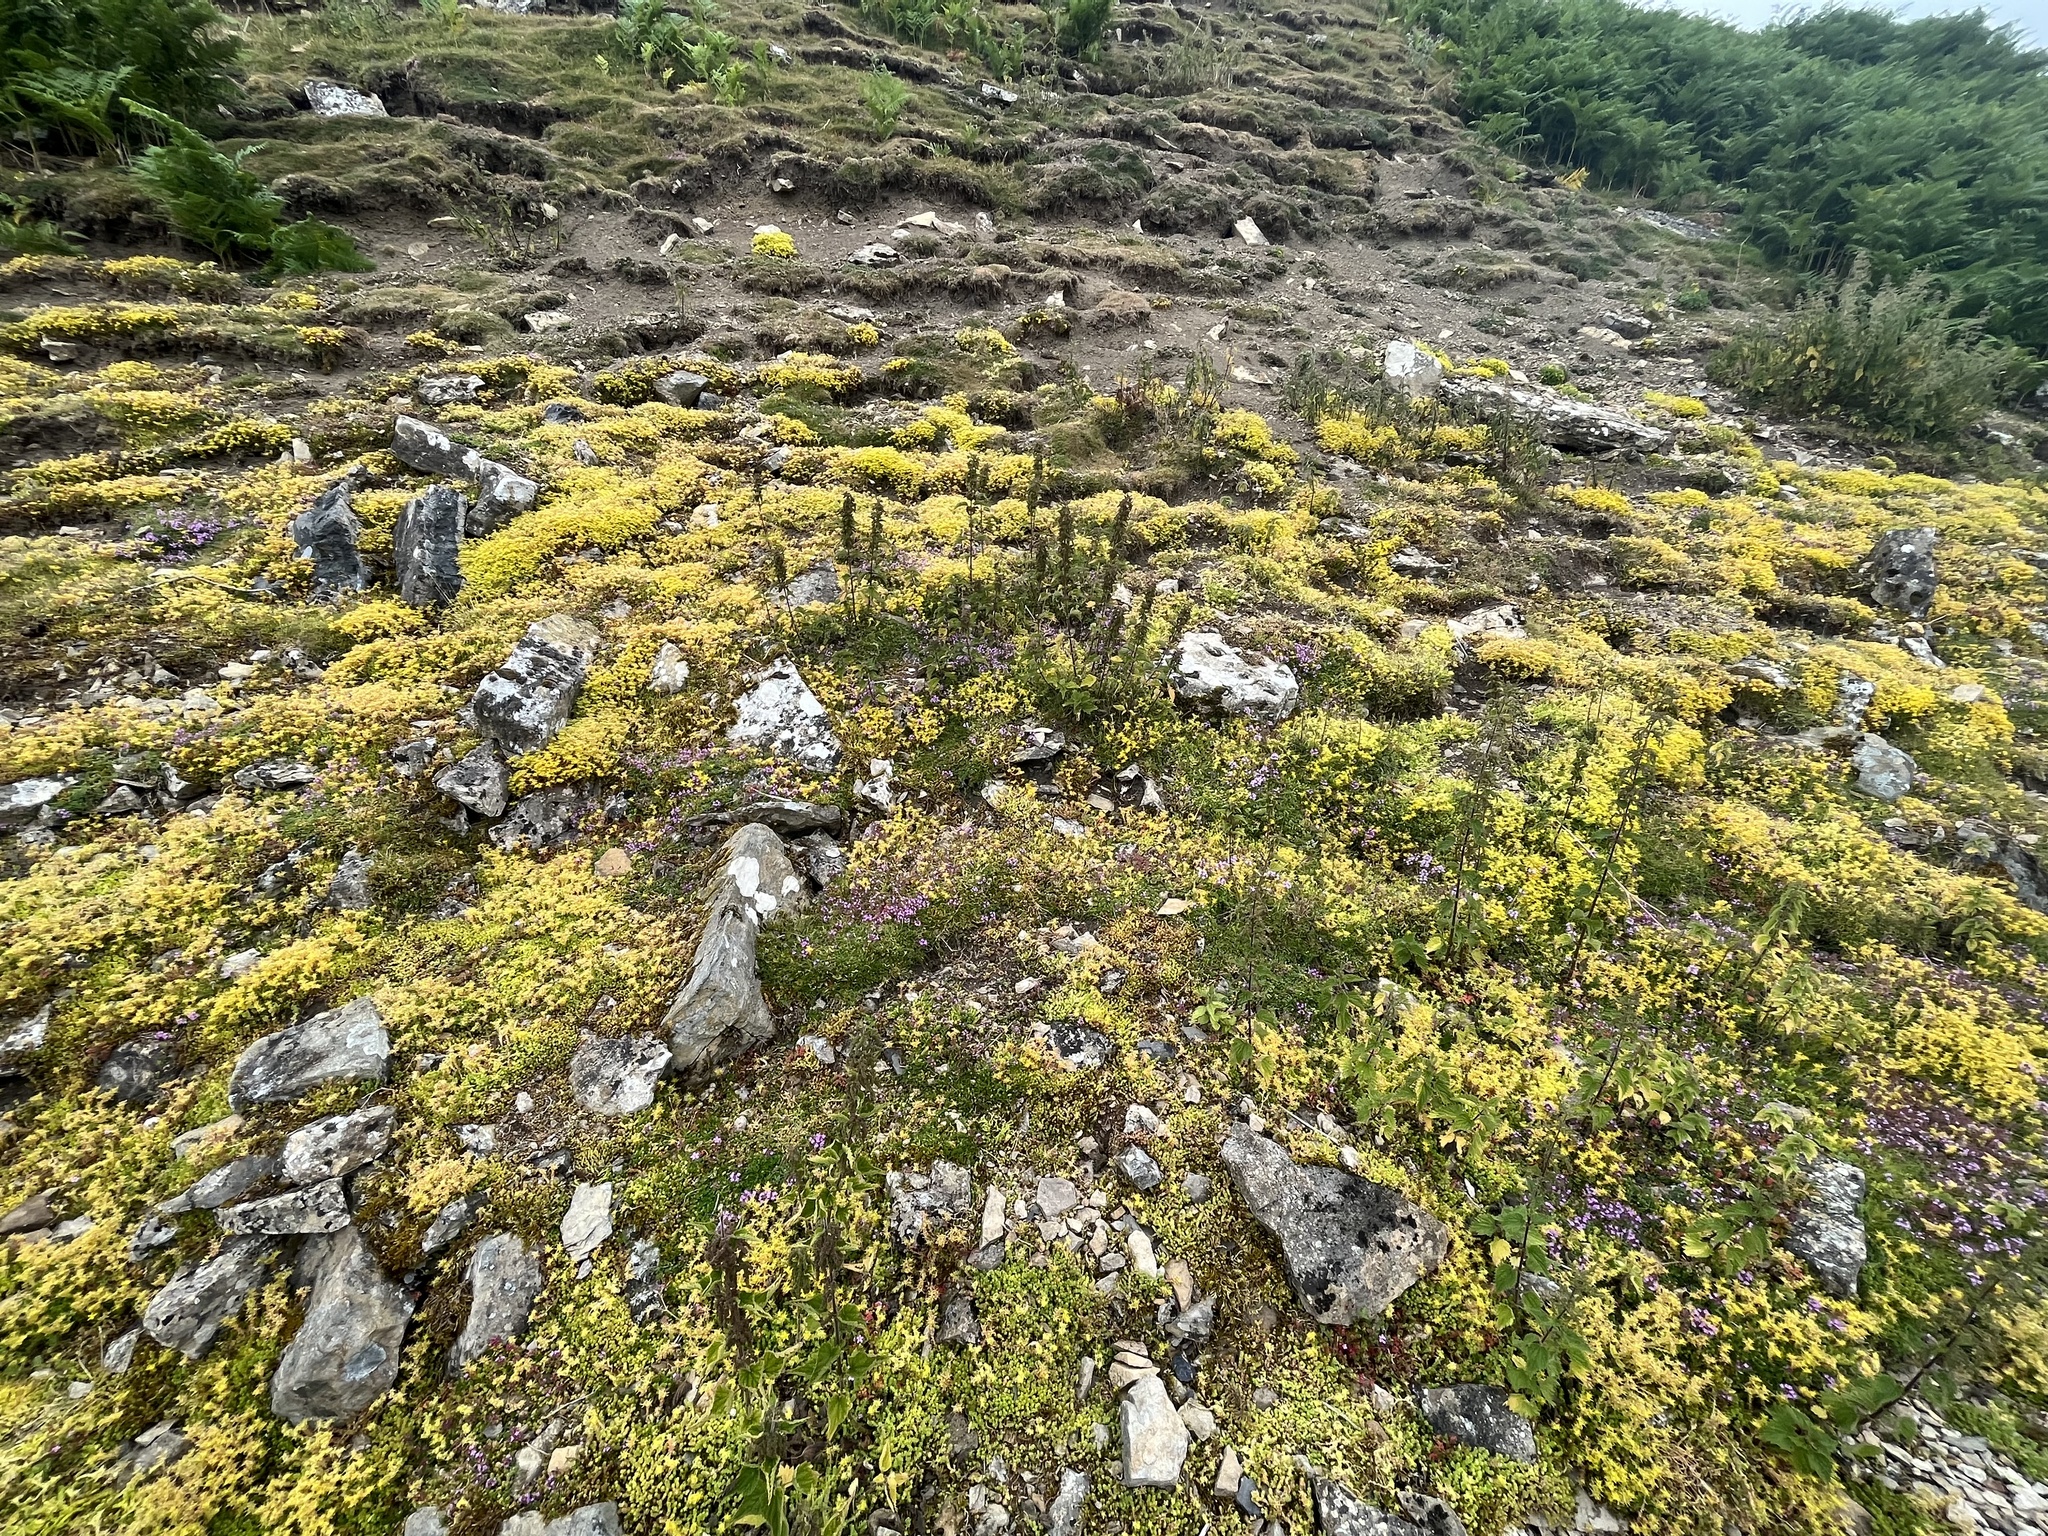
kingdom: Plantae
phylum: Tracheophyta
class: Magnoliopsida
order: Saxifragales
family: Crassulaceae
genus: Sedum
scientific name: Sedum acre
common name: Biting stonecrop
